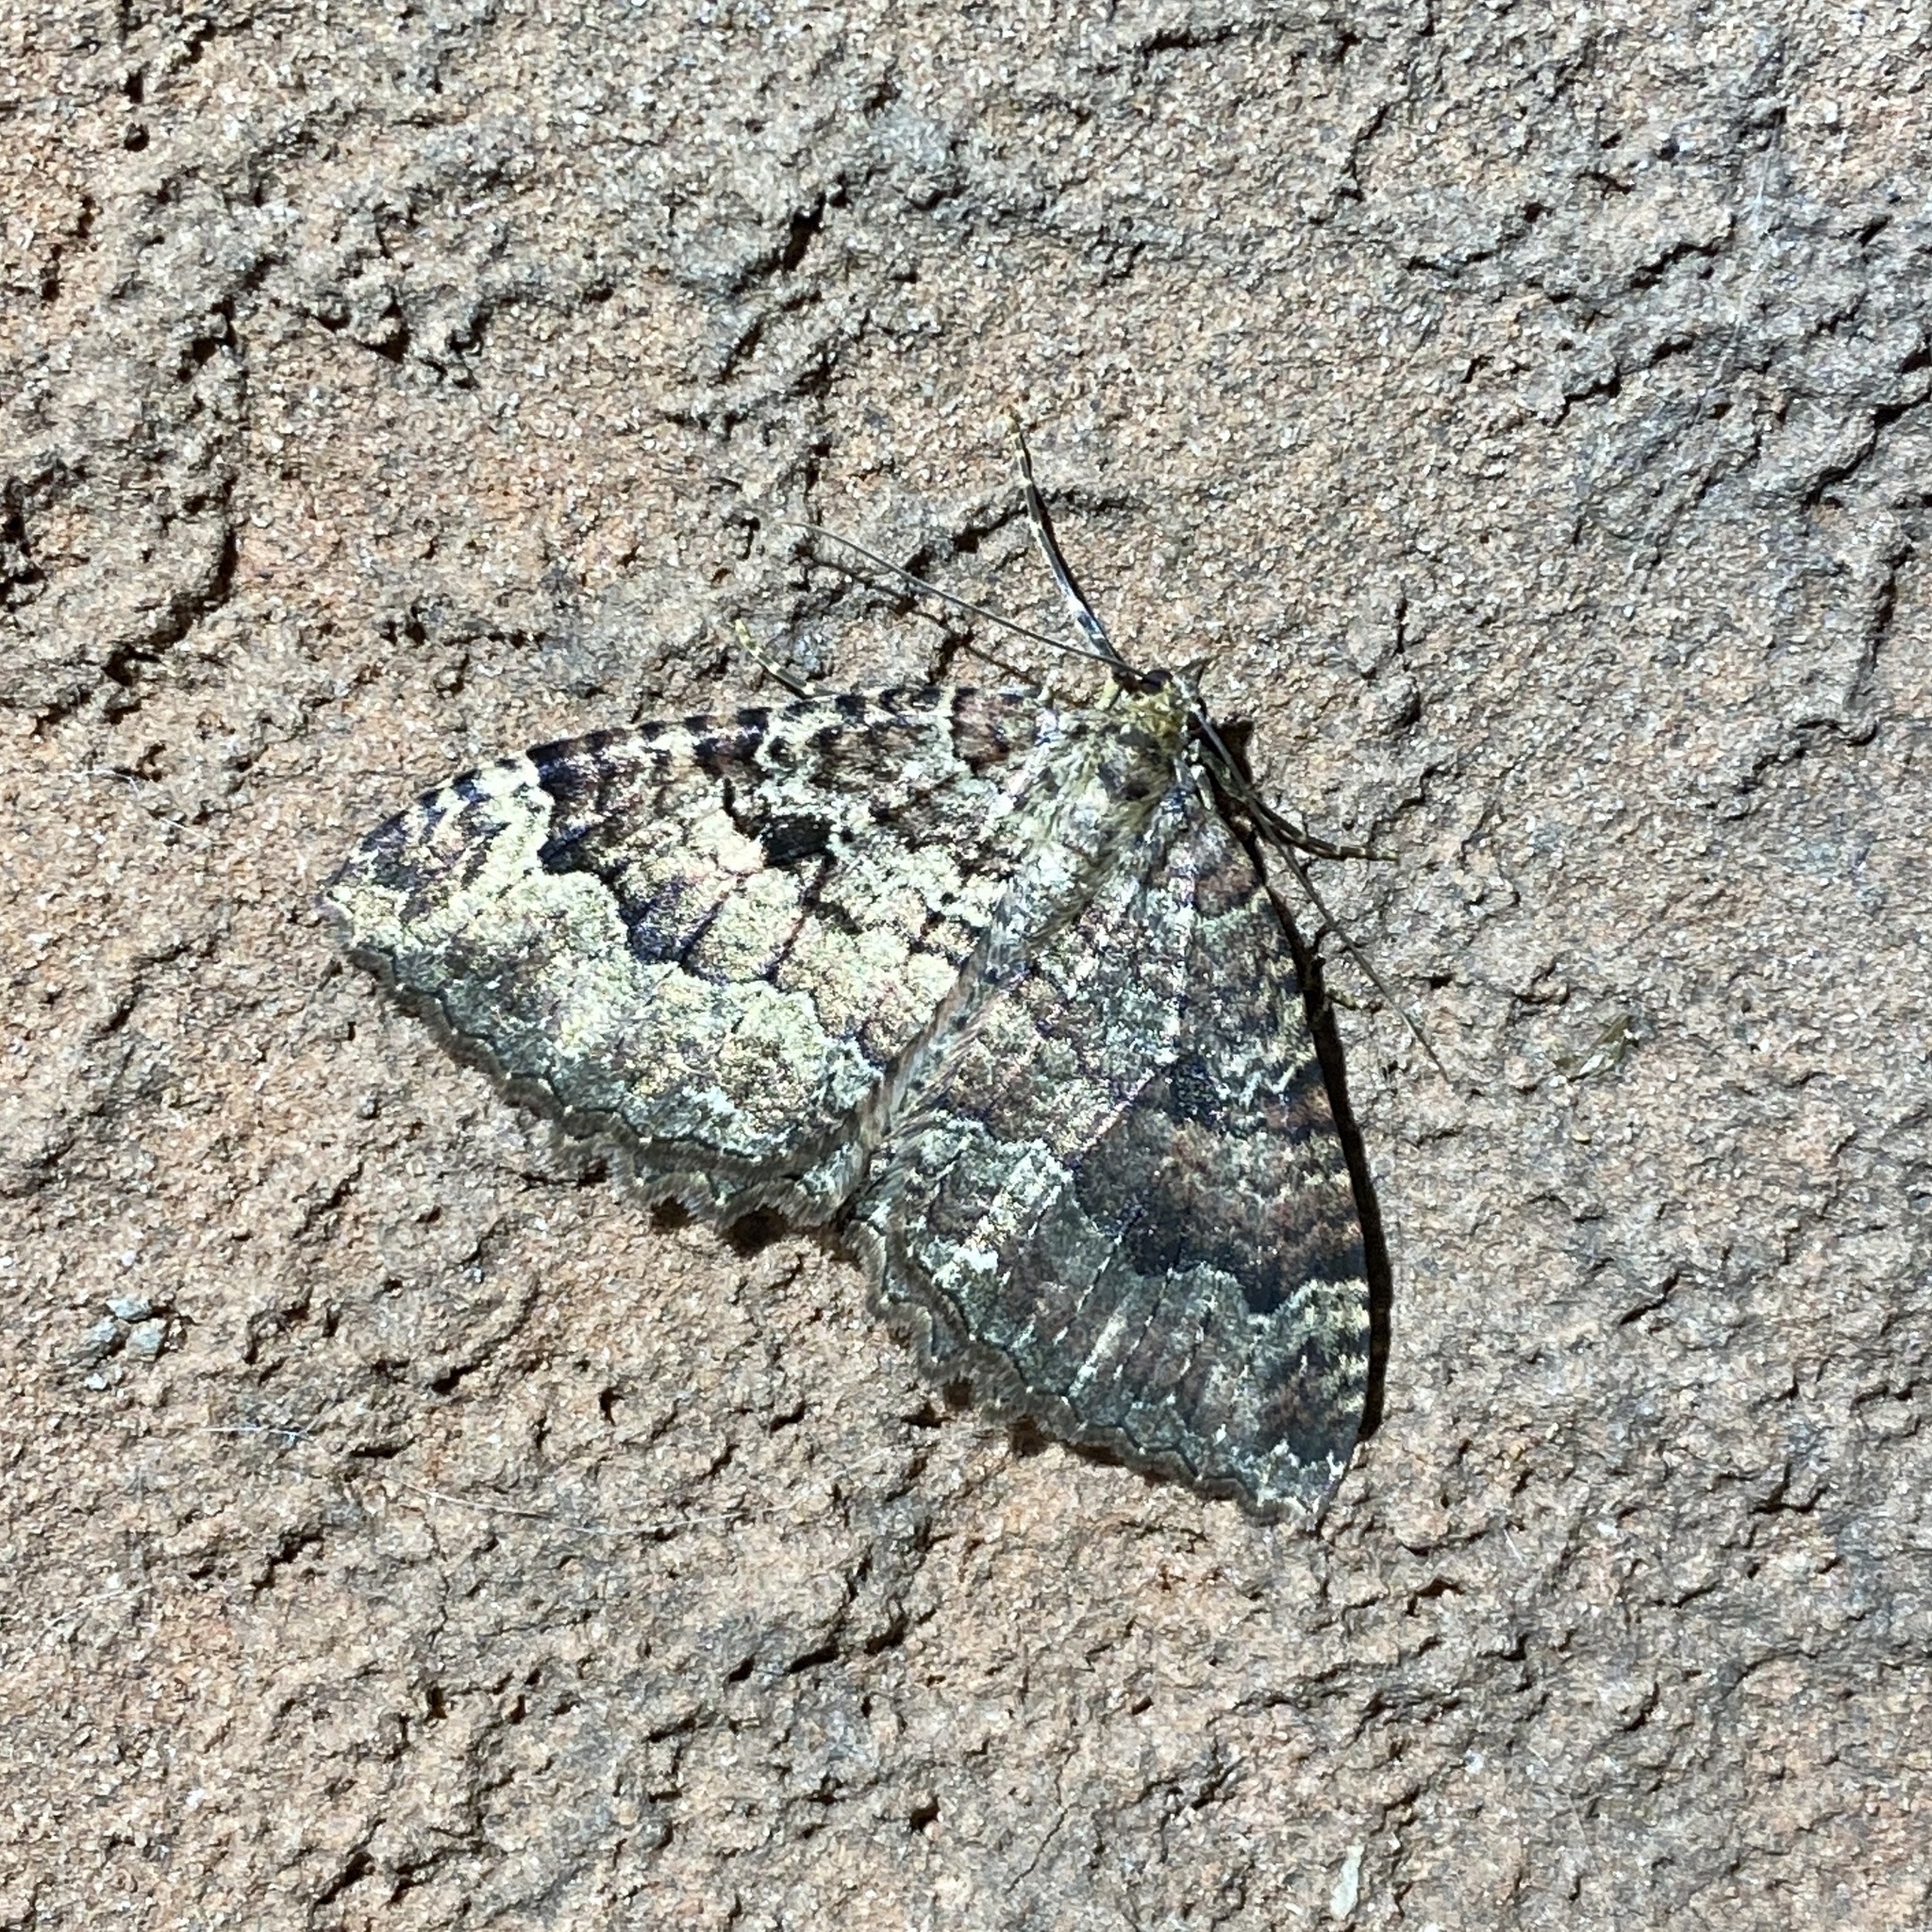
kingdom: Animalia
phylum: Arthropoda
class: Insecta
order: Lepidoptera
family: Geometridae
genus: Triphosa
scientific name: Triphosa dubitata
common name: Tissue
